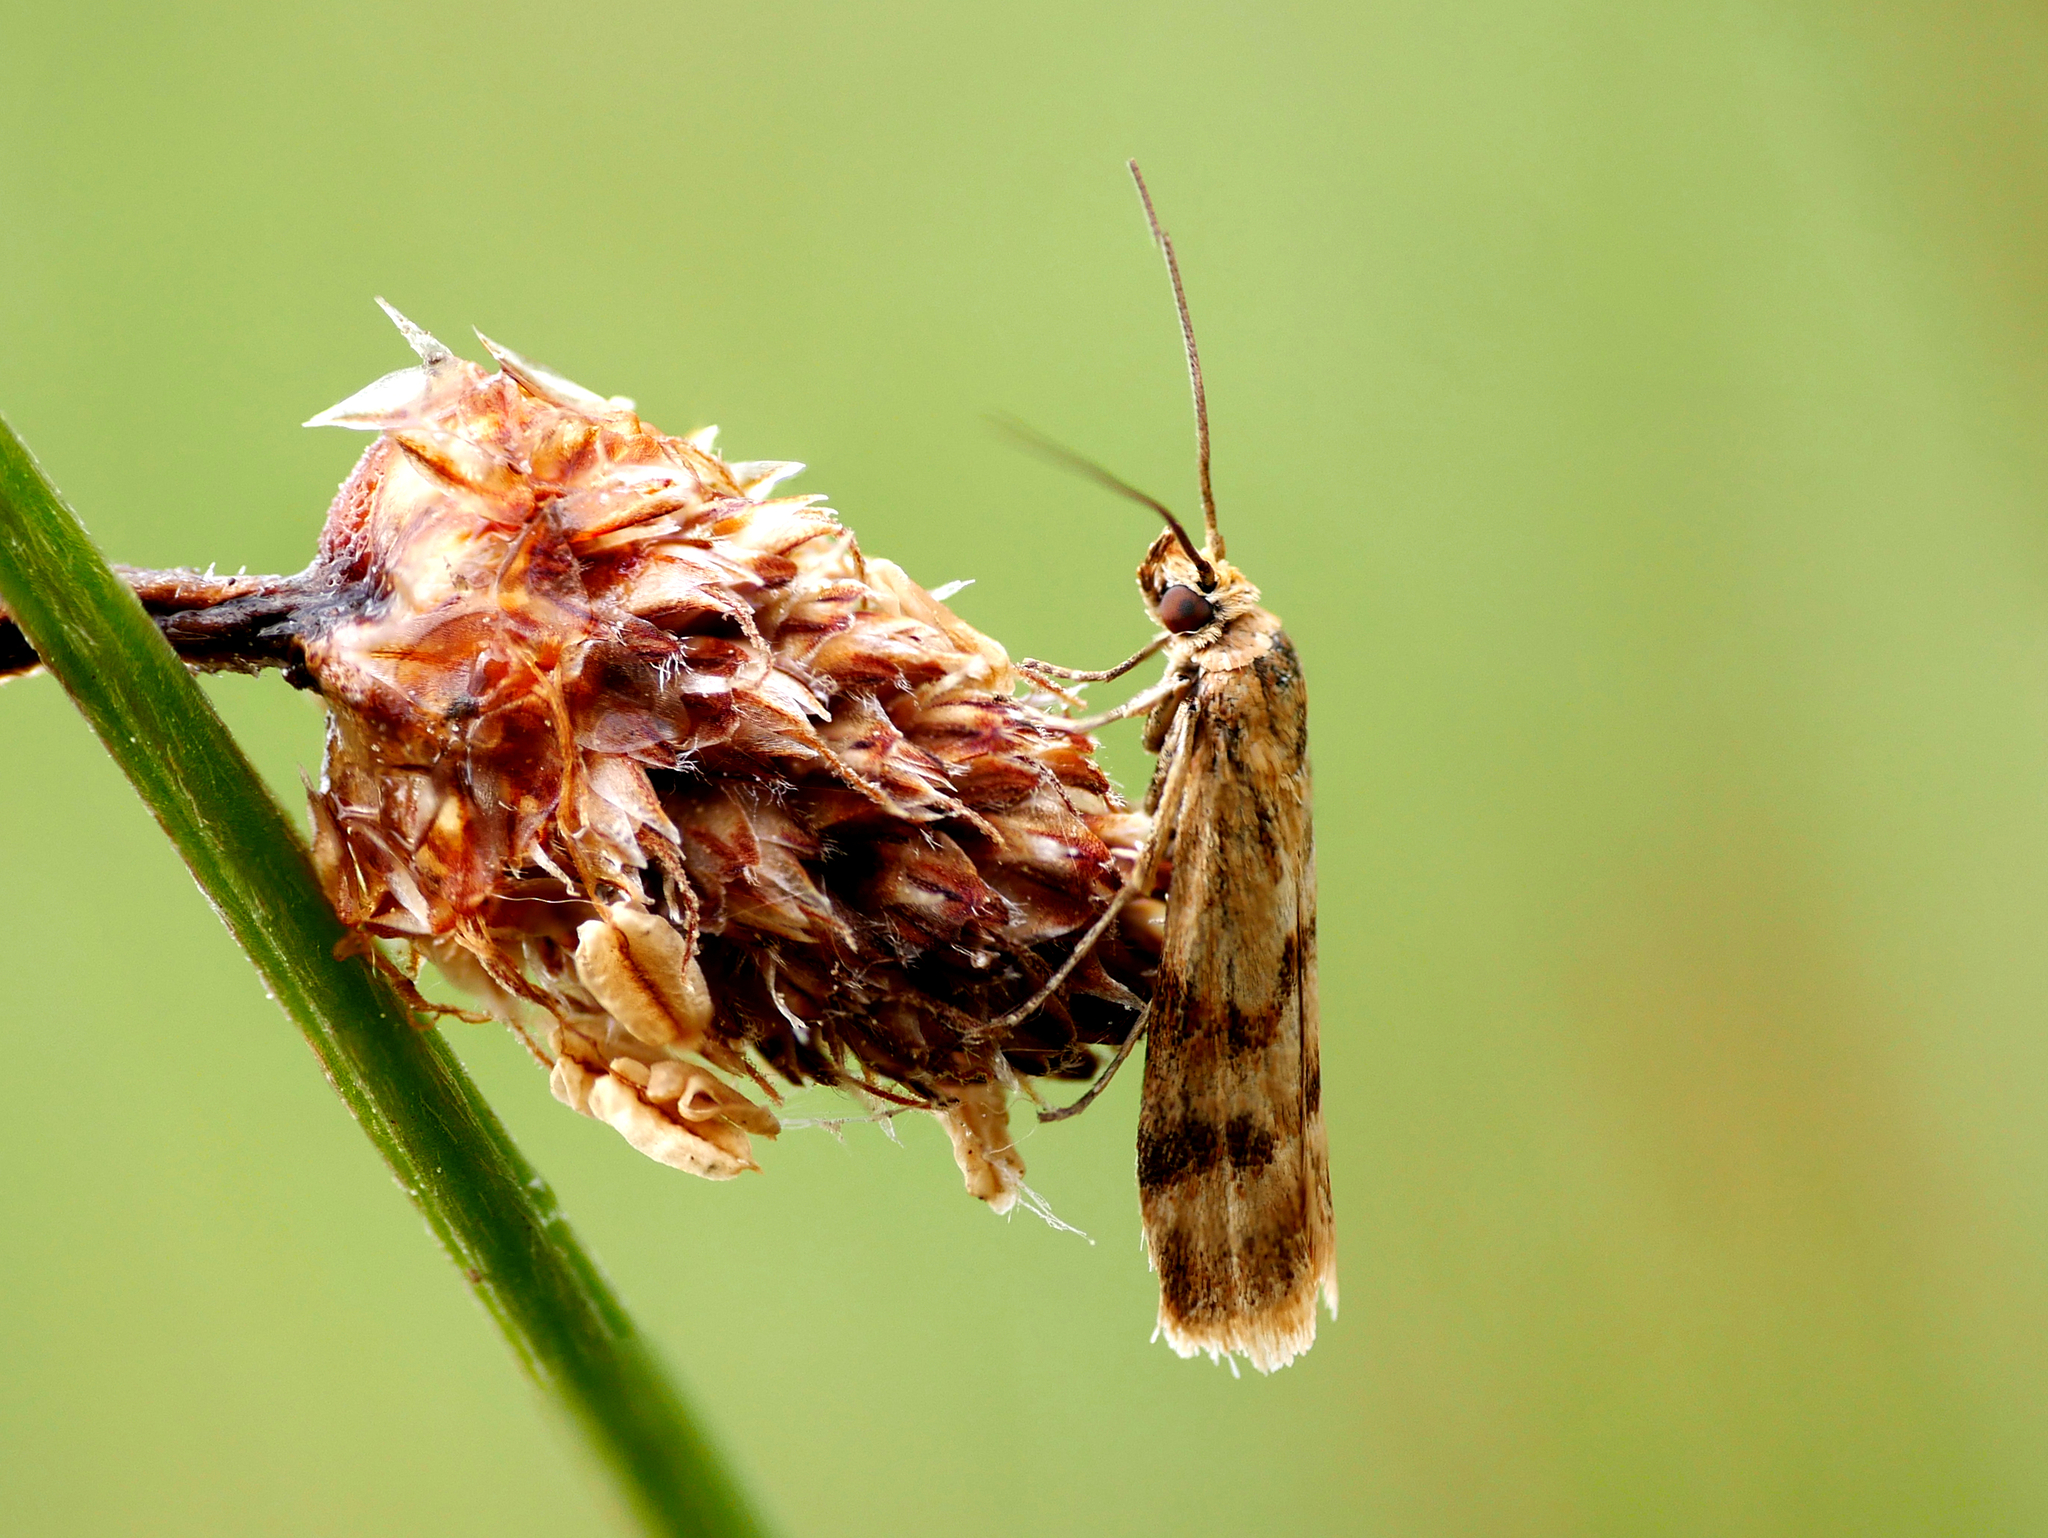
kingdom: Animalia
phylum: Arthropoda
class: Insecta
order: Lepidoptera
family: Pyralidae
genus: Homoeosoma
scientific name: Homoeosoma sinuella
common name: Twin-barred knot-horn
